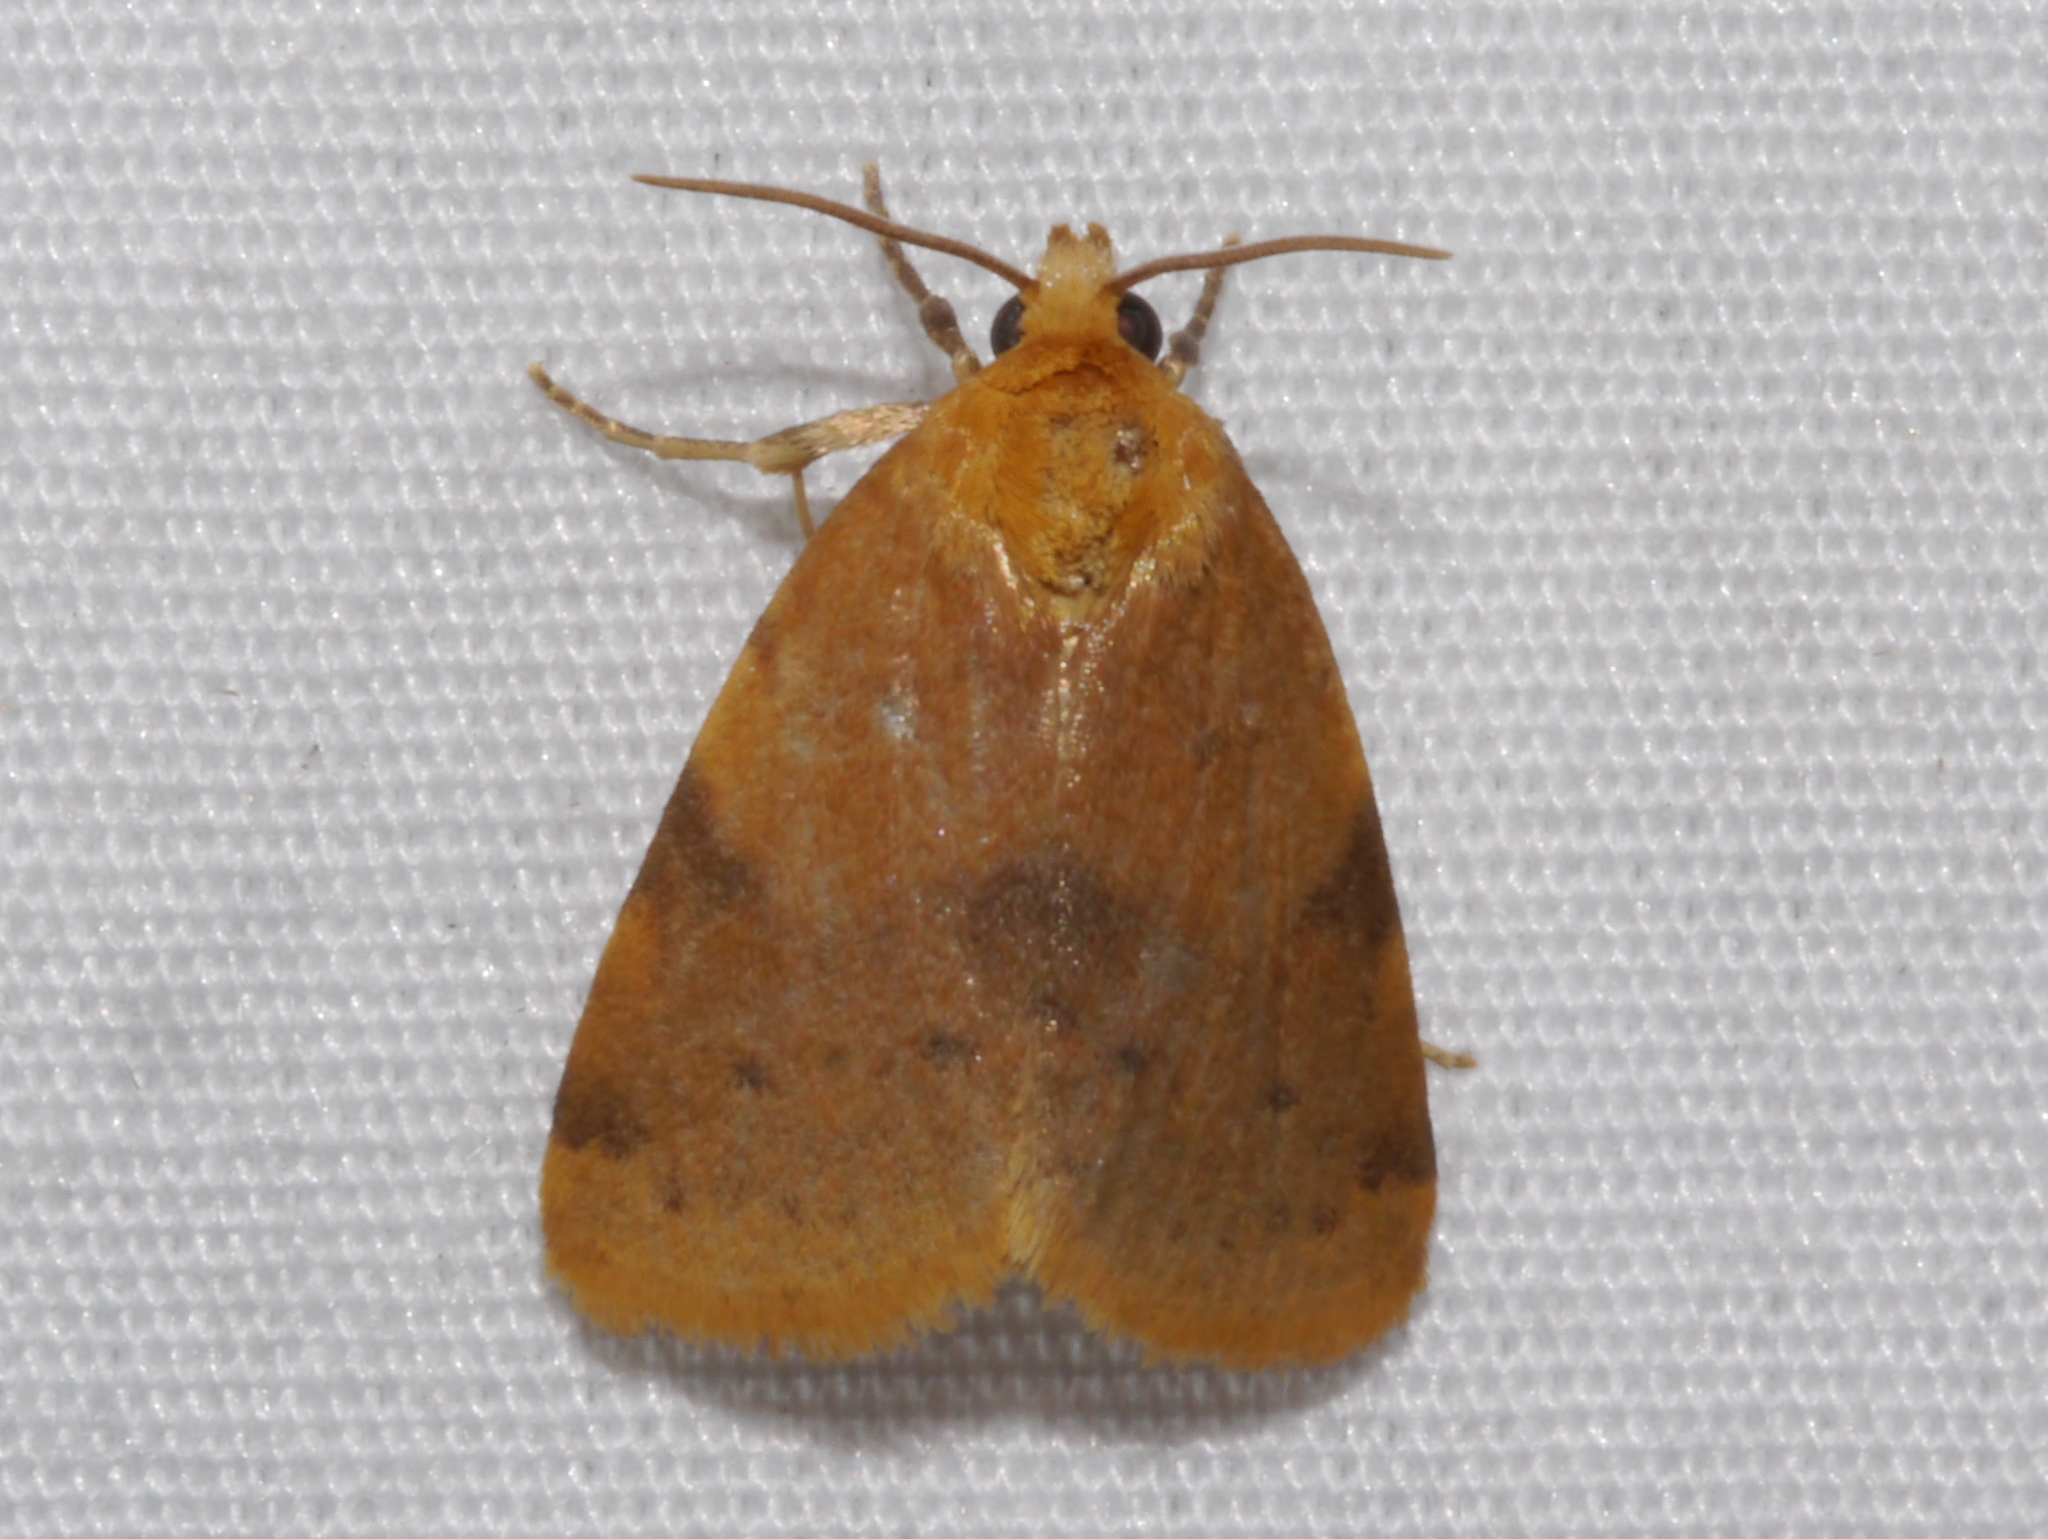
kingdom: Animalia
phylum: Arthropoda
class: Insecta
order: Lepidoptera
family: Noctuidae
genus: Azenia
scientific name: Azenia procida
